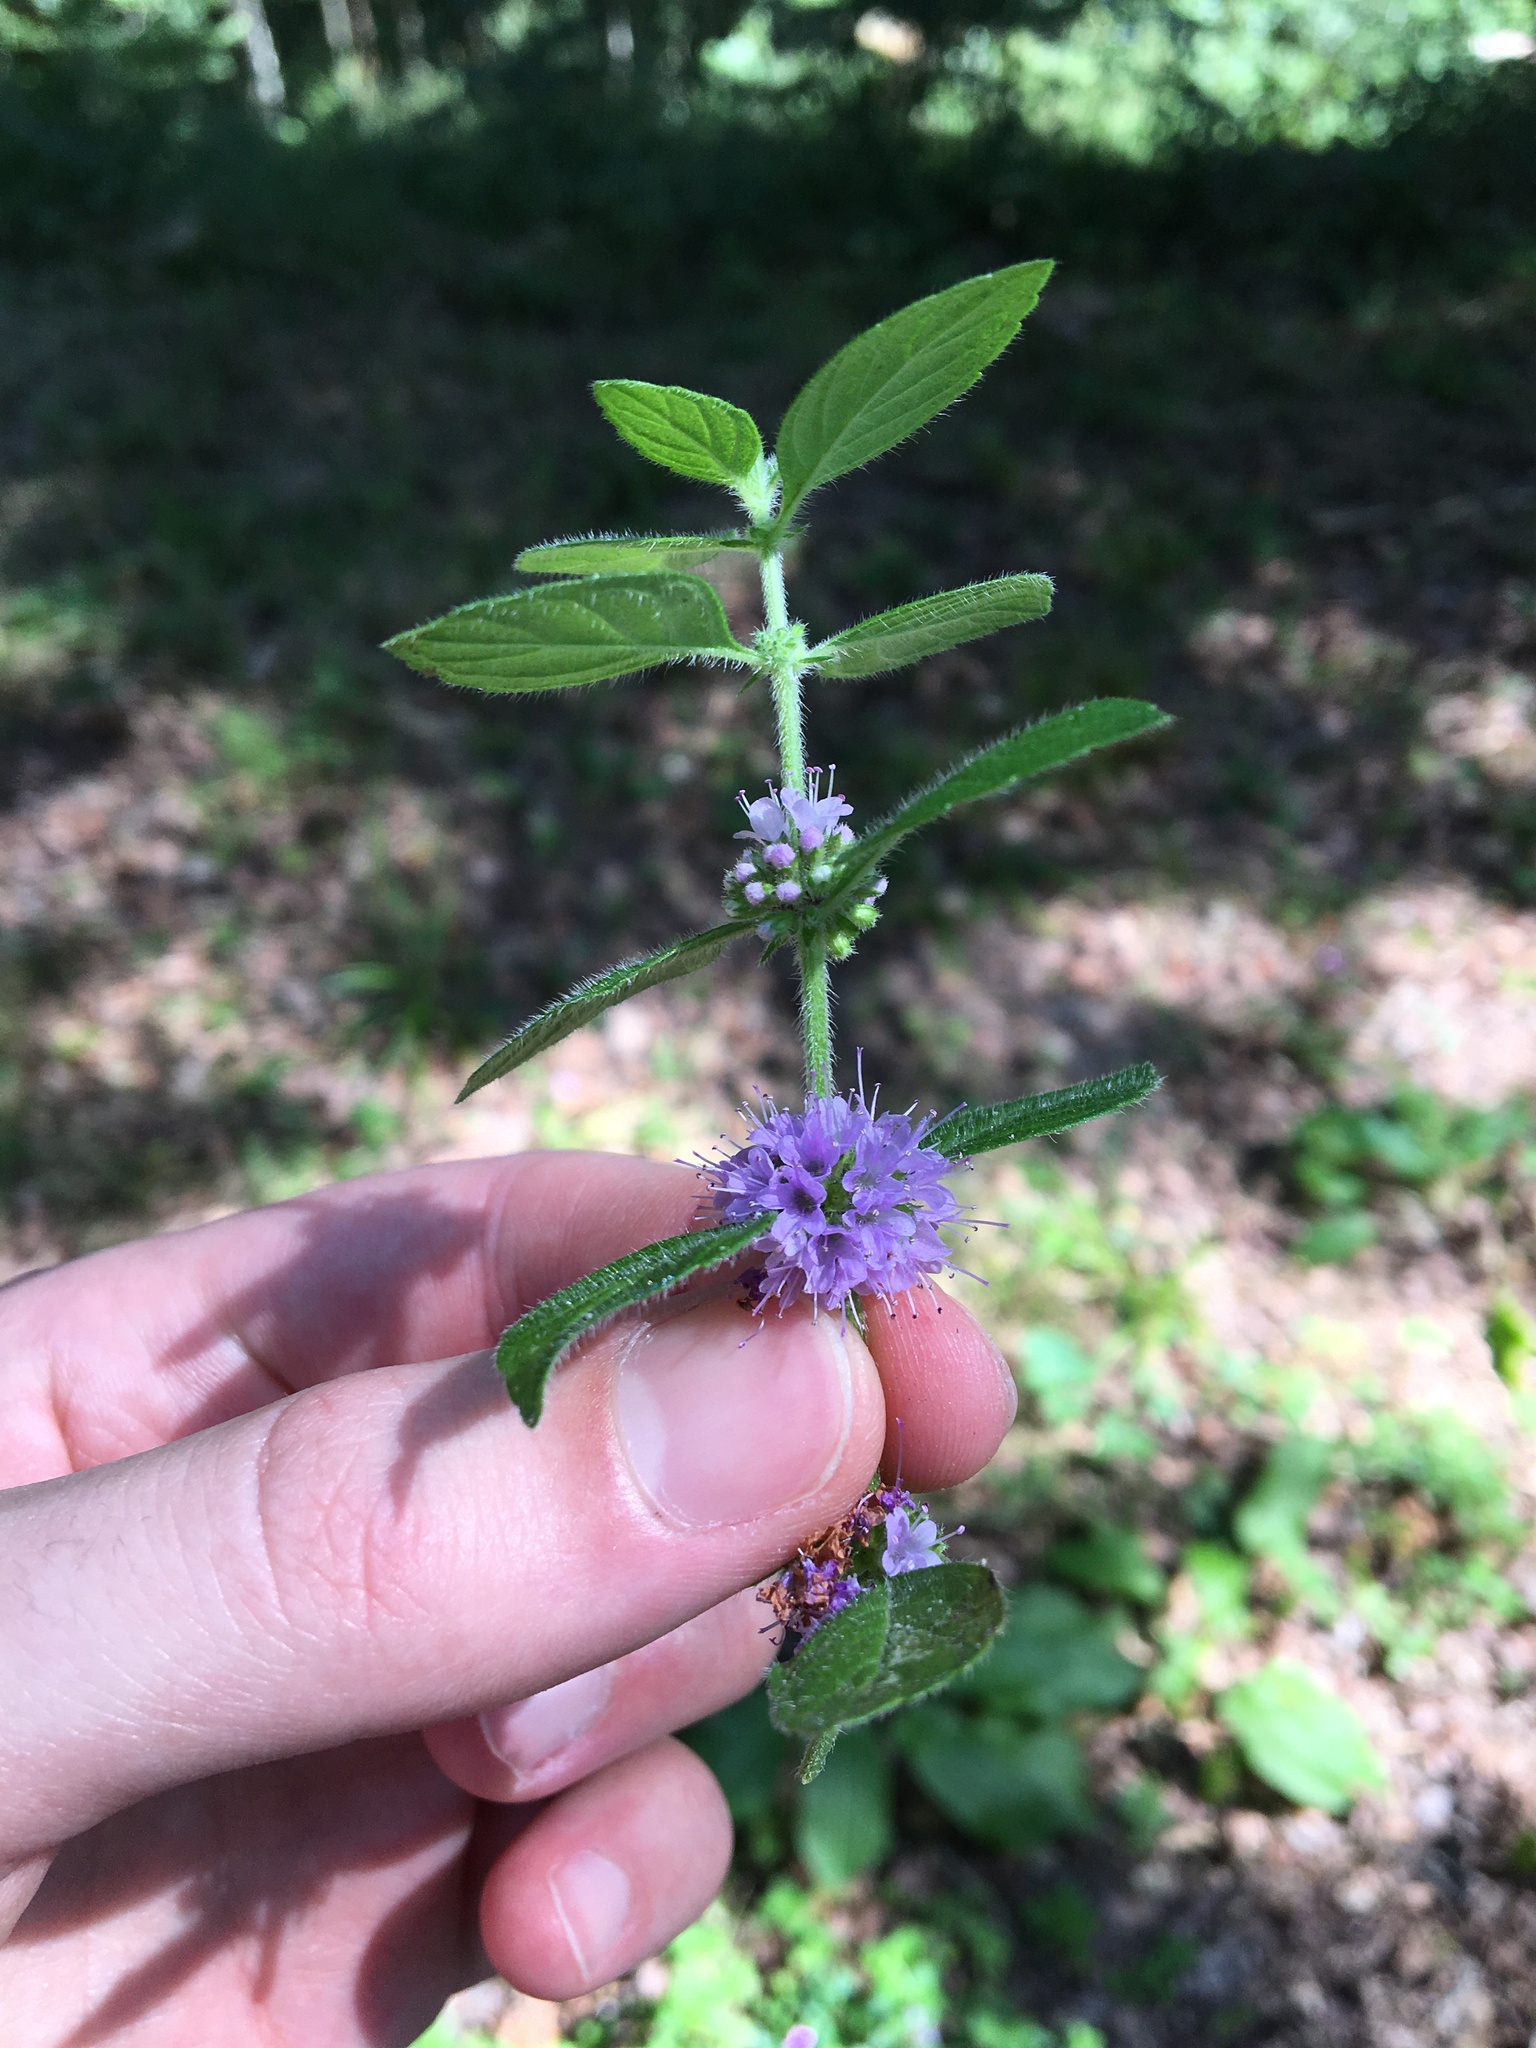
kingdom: Plantae
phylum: Tracheophyta
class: Magnoliopsida
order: Lamiales
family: Lamiaceae
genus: Mentha
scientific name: Mentha arvensis
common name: Corn mint
